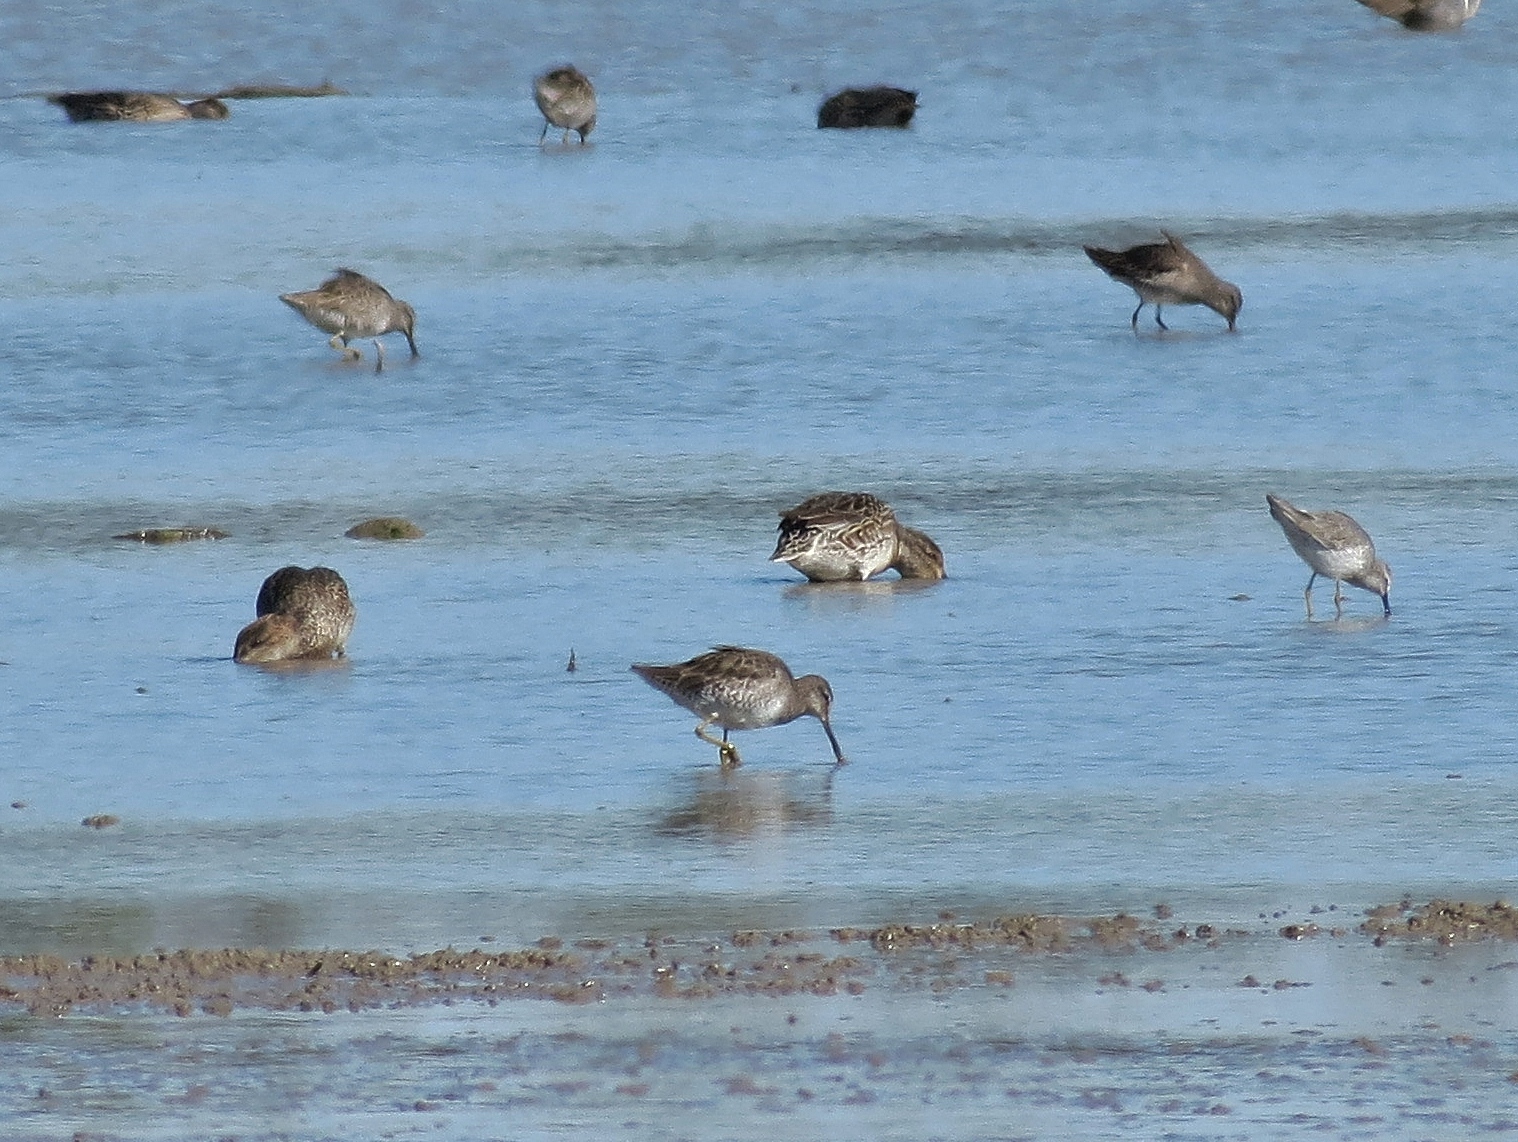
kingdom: Animalia
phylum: Chordata
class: Aves
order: Charadriiformes
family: Scolopacidae
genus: Limnodromus
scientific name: Limnodromus scolopaceus
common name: Long-billed dowitcher
